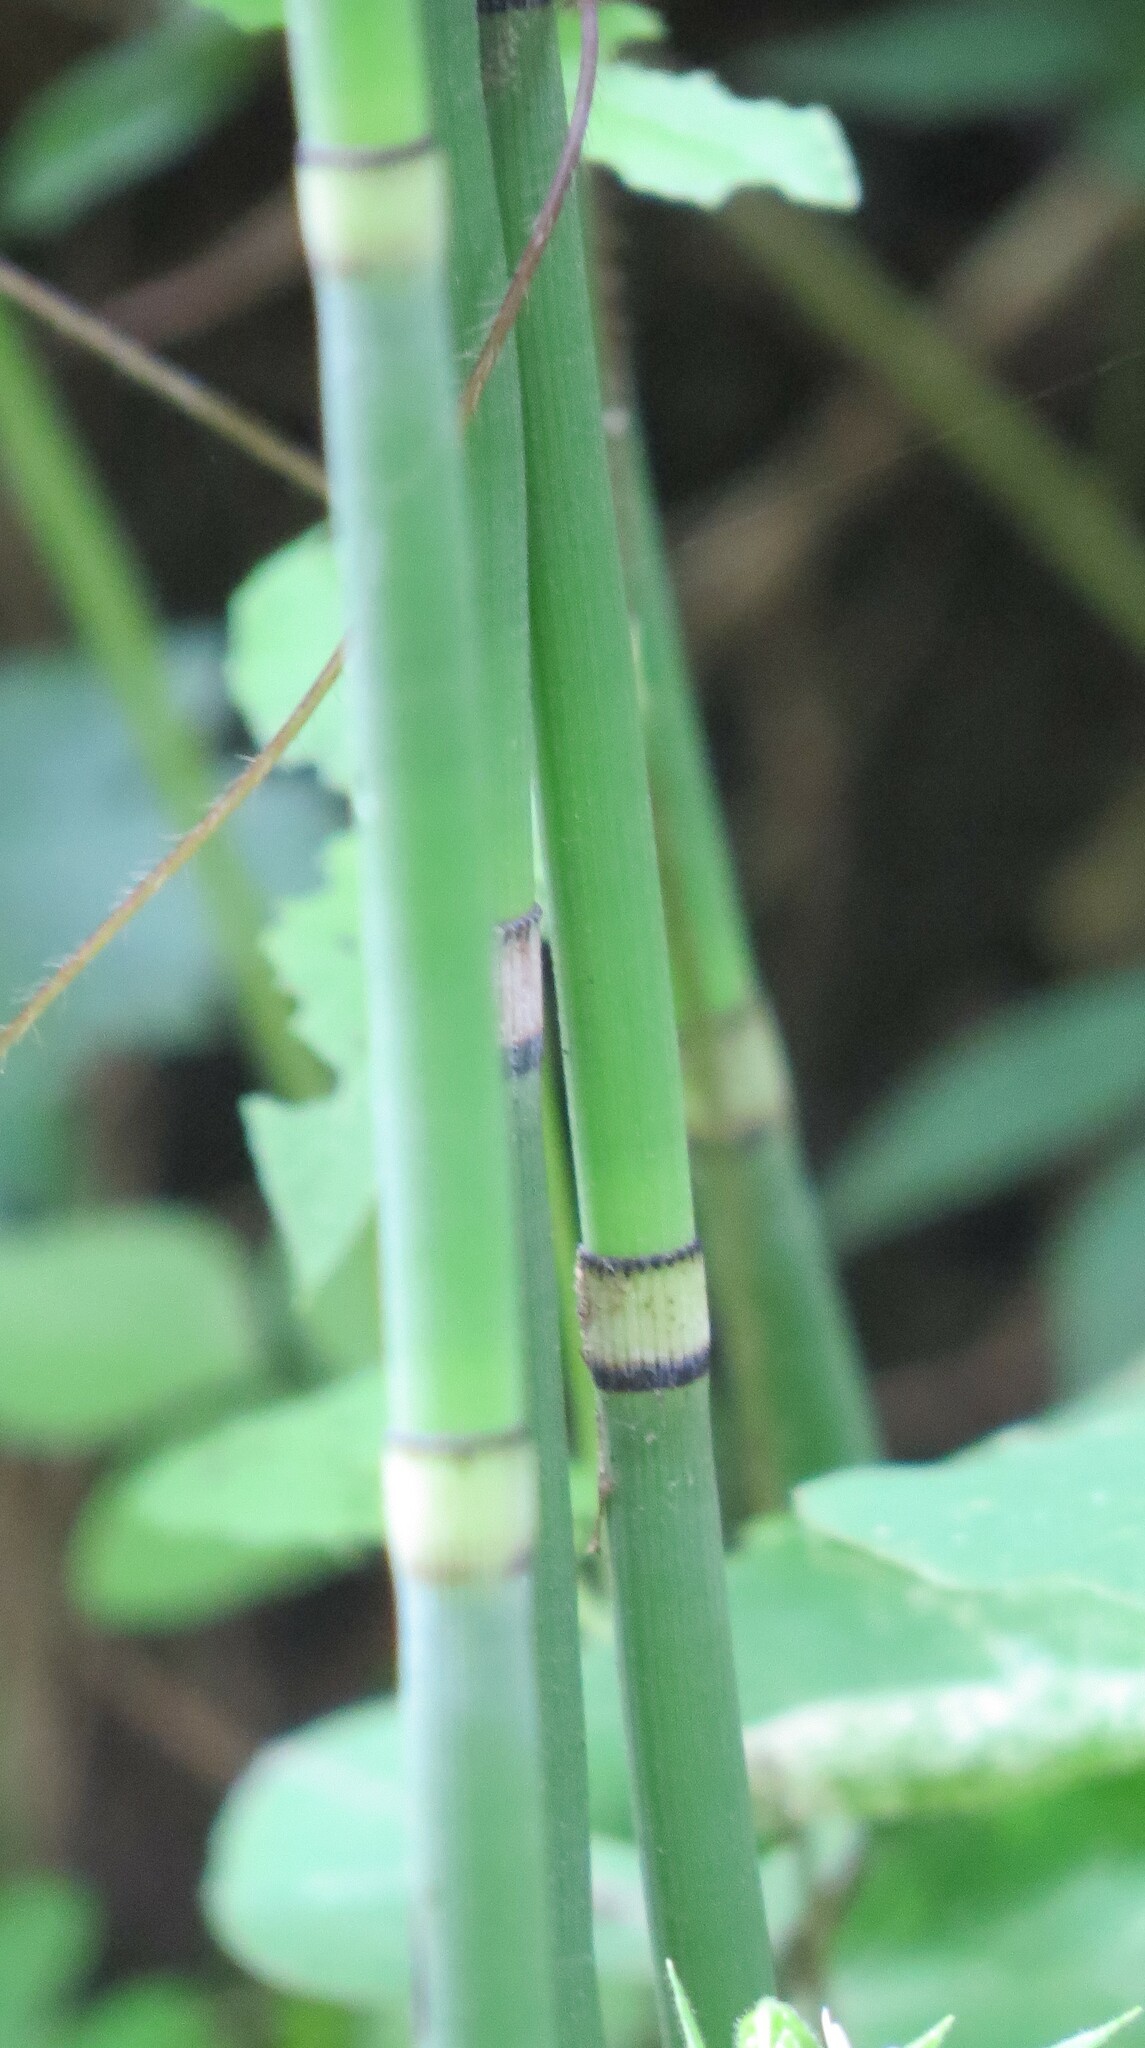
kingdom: Plantae
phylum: Tracheophyta
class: Polypodiopsida
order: Equisetales
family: Equisetaceae
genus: Equisetum
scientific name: Equisetum hyemale
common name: Rough horsetail
